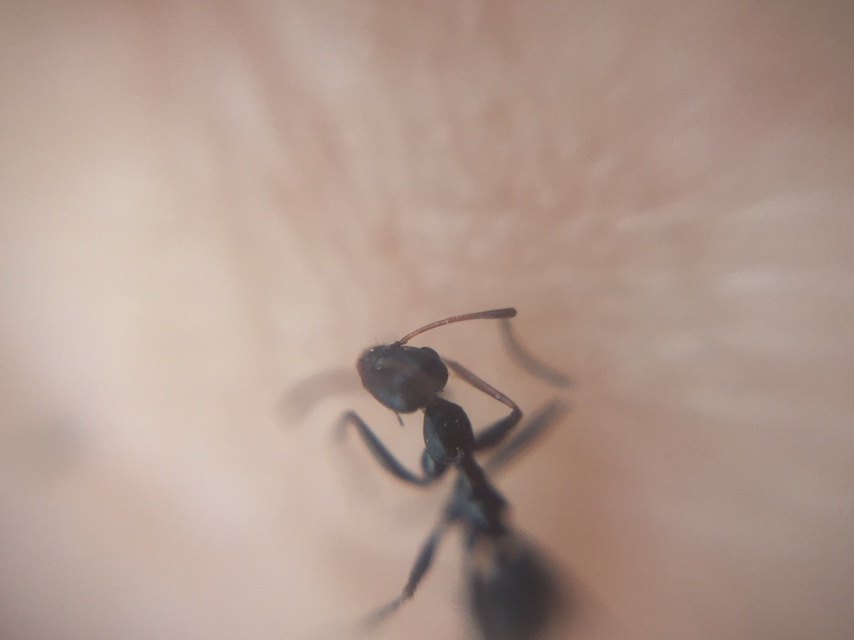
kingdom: Animalia
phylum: Arthropoda
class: Insecta
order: Hymenoptera
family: Formicidae
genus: Lepisiota
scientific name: Lepisiota integra
